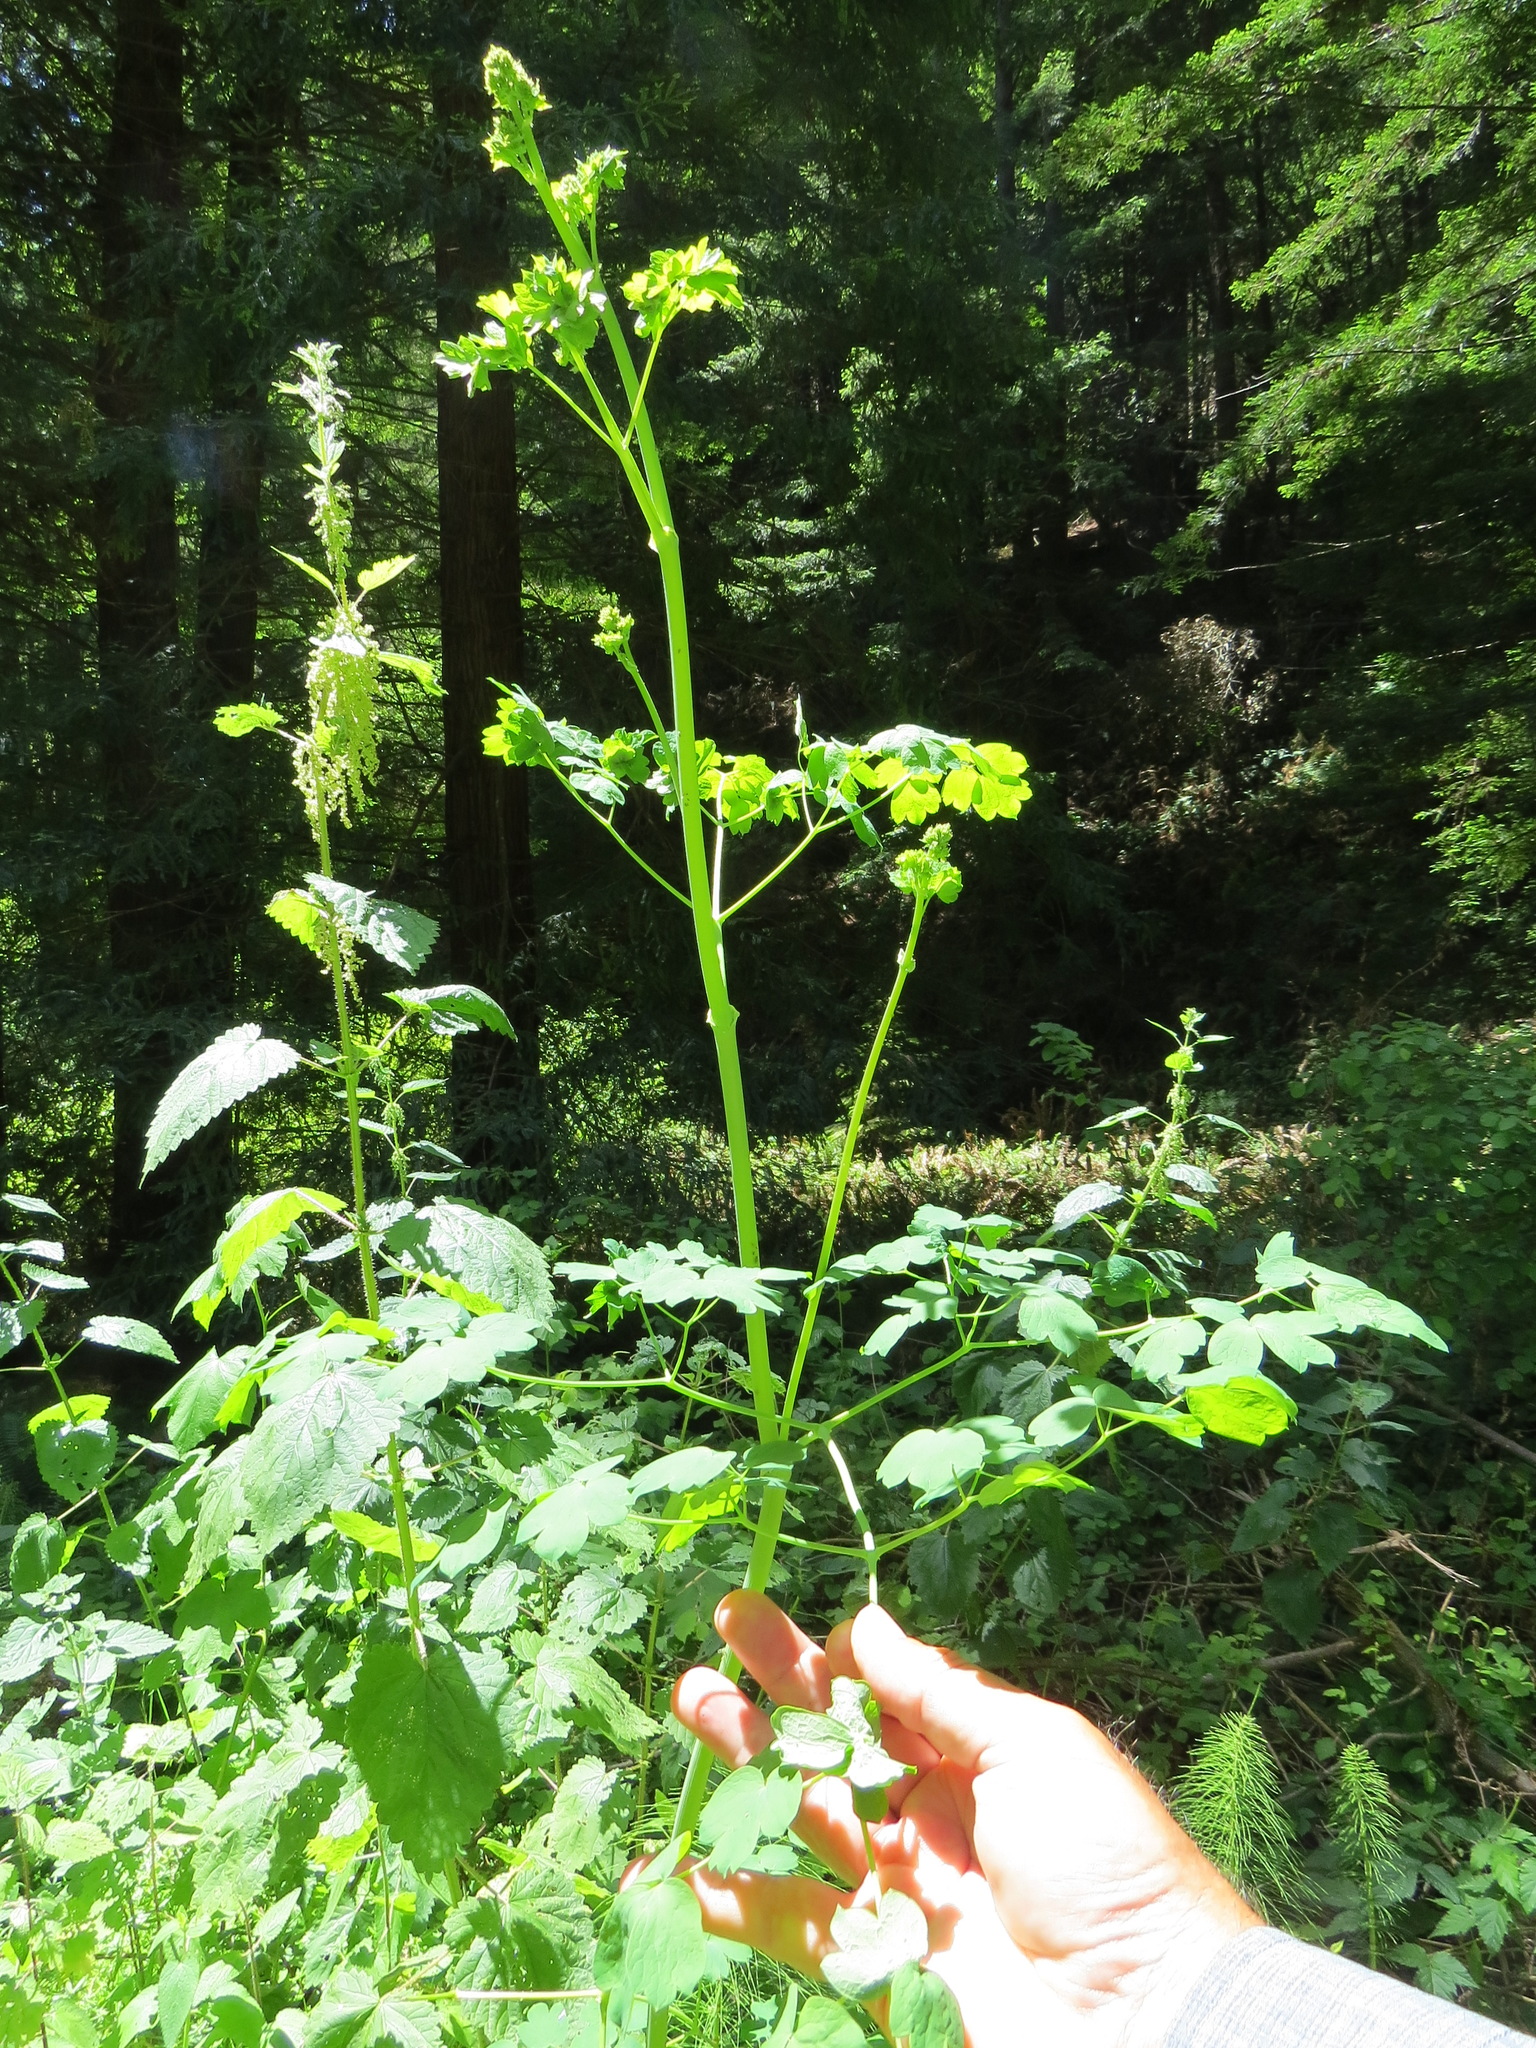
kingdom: Plantae
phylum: Tracheophyta
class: Magnoliopsida
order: Ranunculales
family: Ranunculaceae
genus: Thalictrum
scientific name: Thalictrum fendleri
